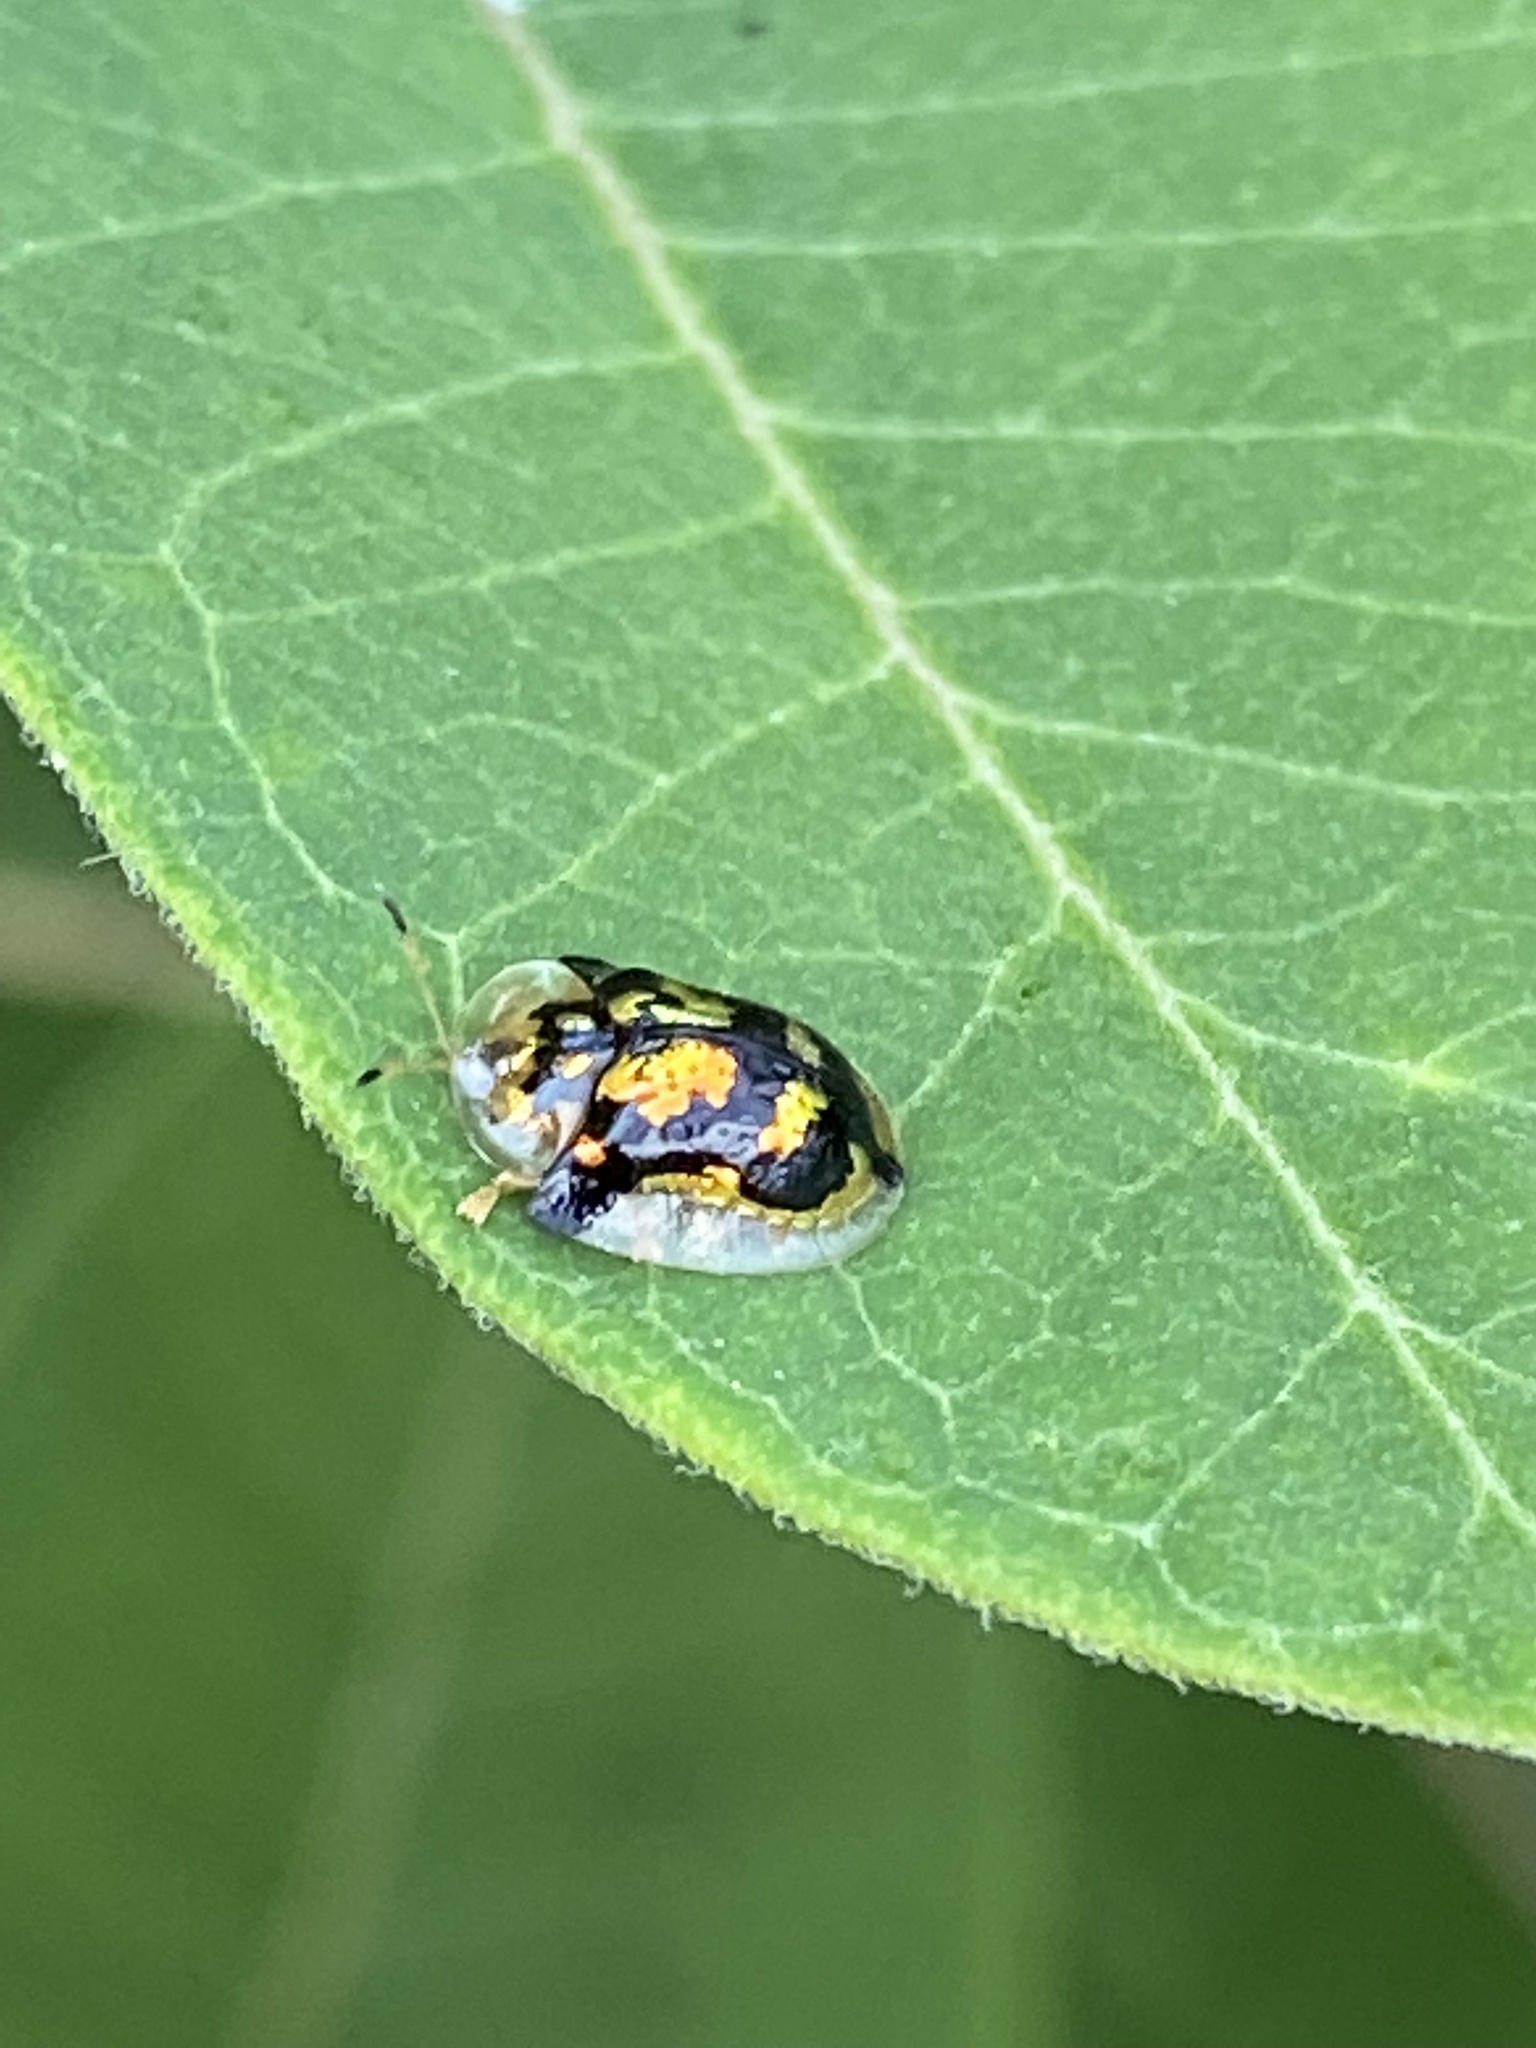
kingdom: Animalia
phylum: Arthropoda
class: Insecta
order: Coleoptera
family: Chrysomelidae
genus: Deloyala
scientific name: Deloyala guttata
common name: Mottled tortoise beetle
